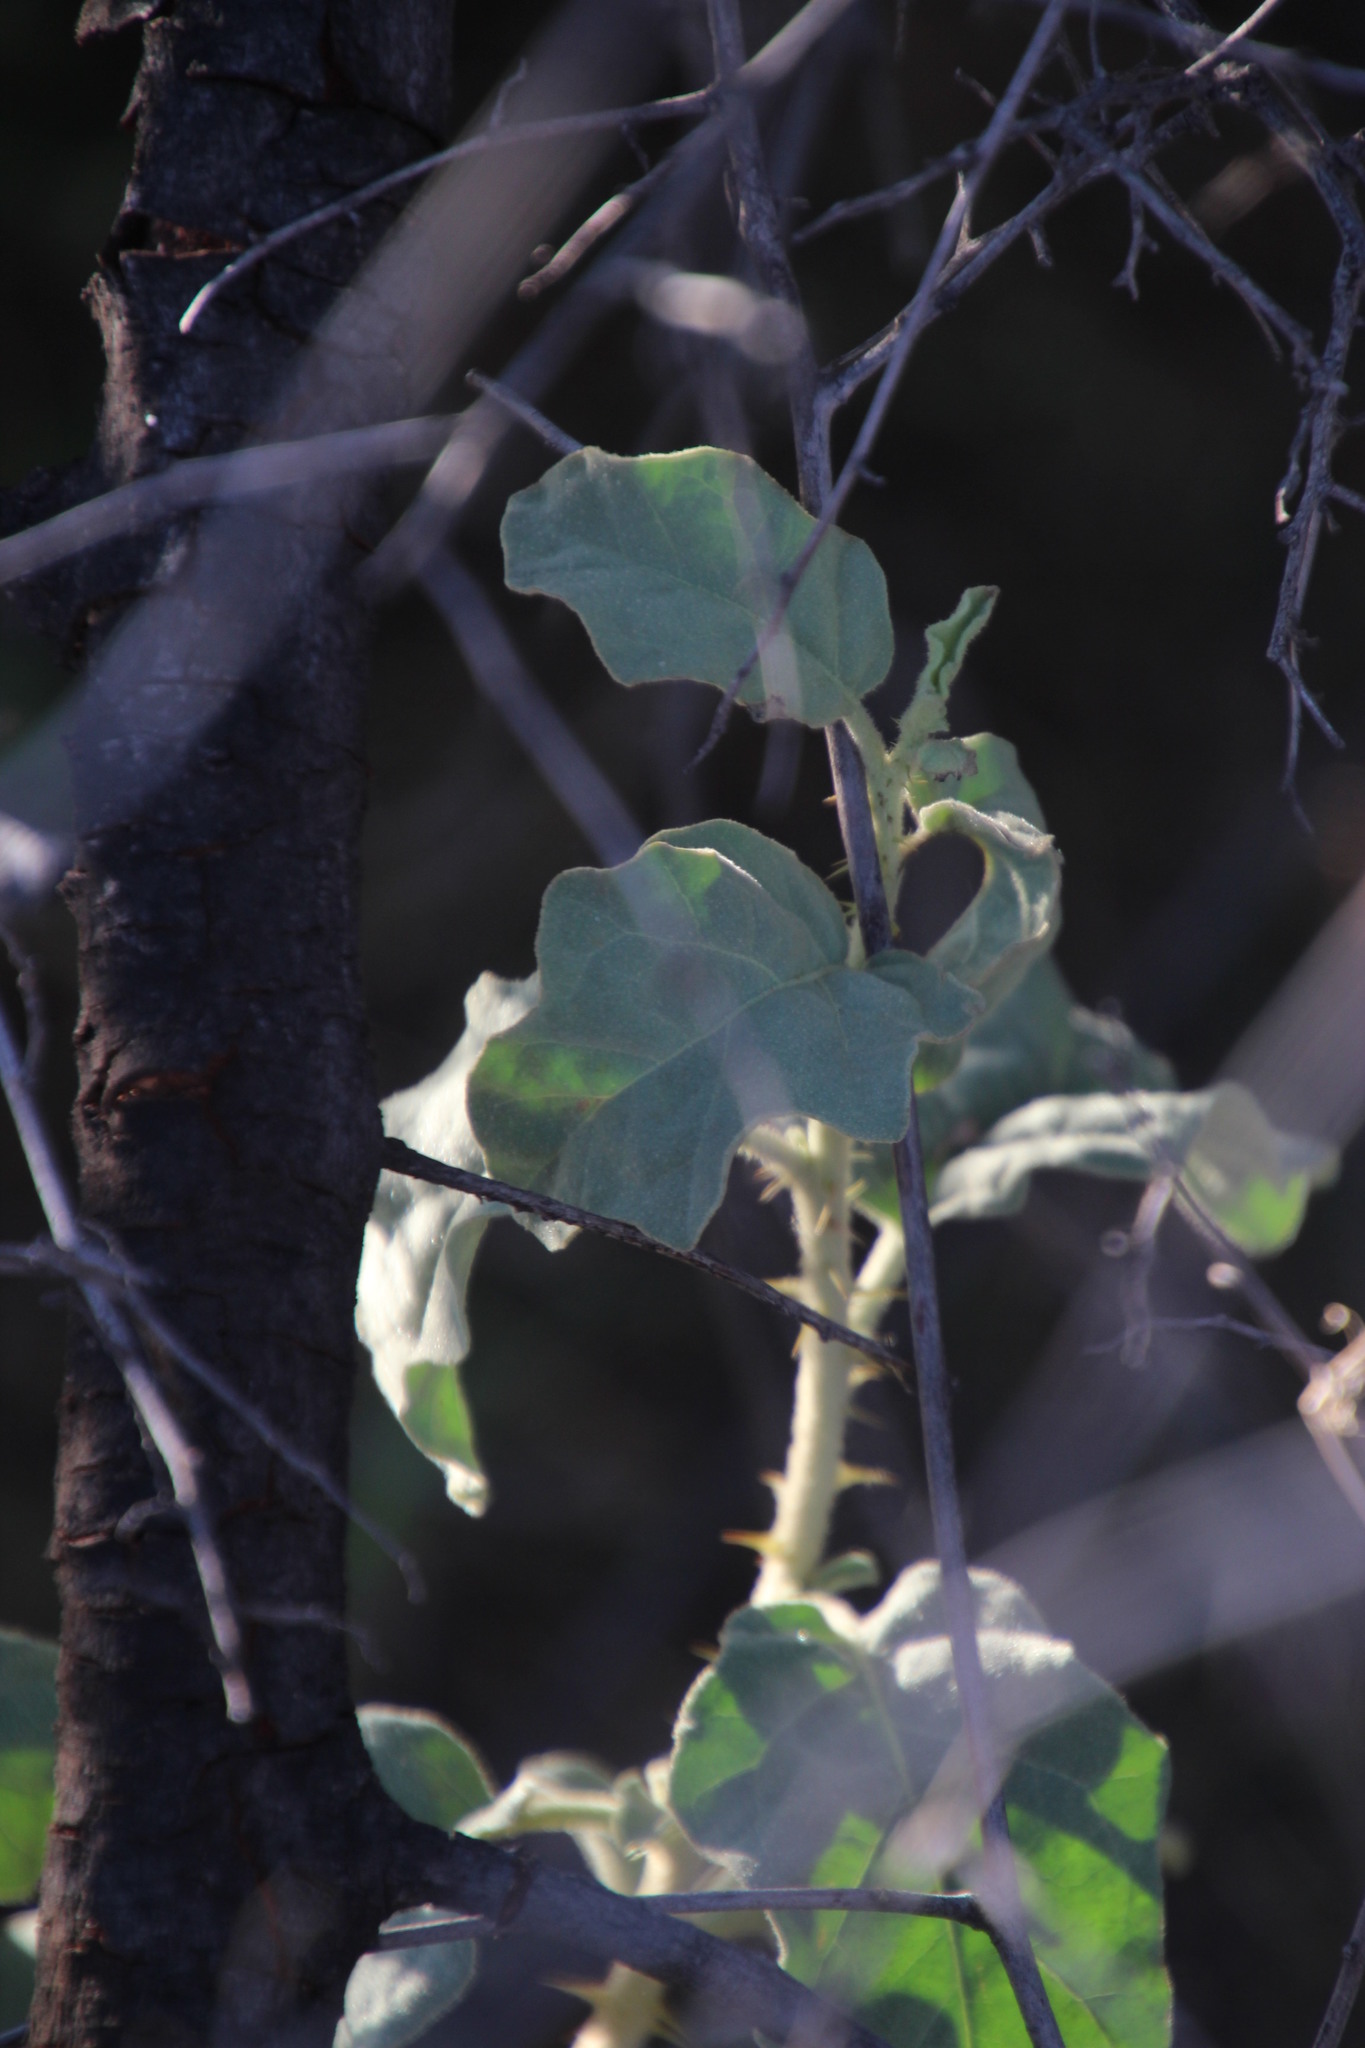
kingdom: Plantae
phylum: Tracheophyta
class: Magnoliopsida
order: Solanales
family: Solanaceae
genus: Solanum
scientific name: Solanum tomentosum
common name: Wild aubergine
